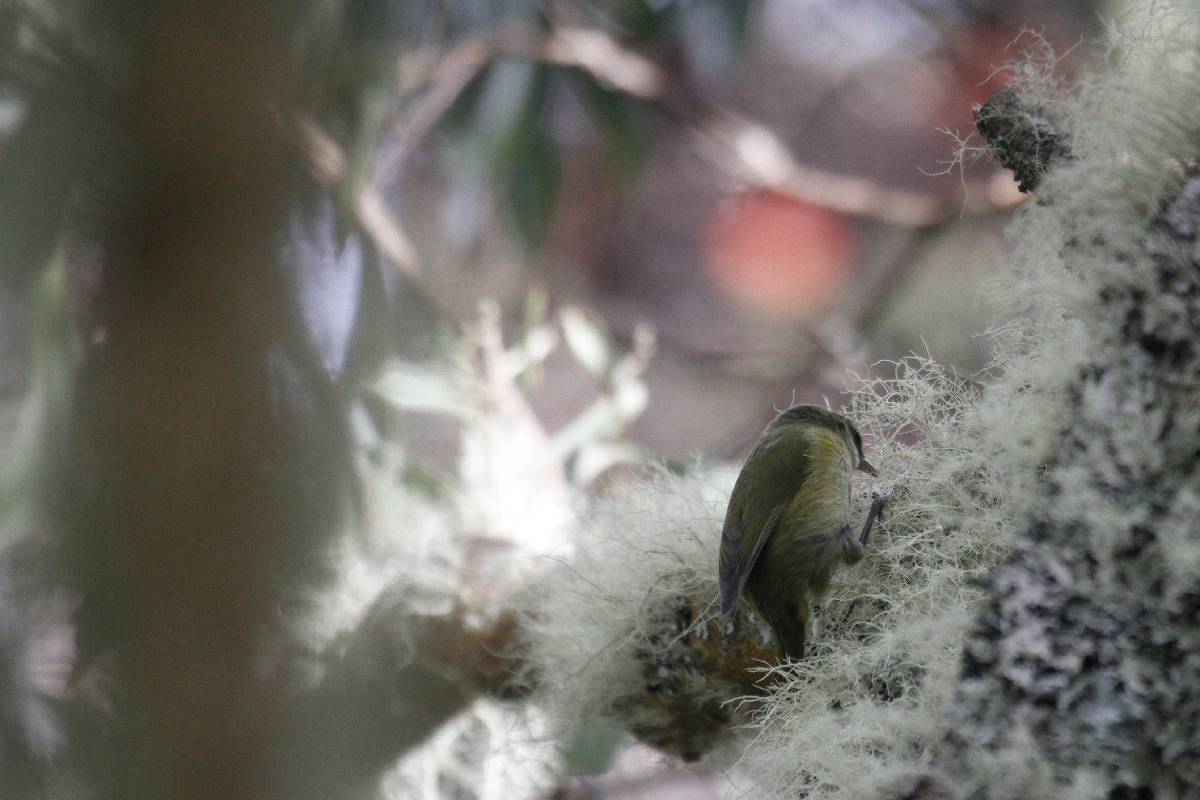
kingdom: Animalia
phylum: Chordata
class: Aves
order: Passeriformes
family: Fringillidae
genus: Loxops
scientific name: Loxops mana
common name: Hawaii creeper
